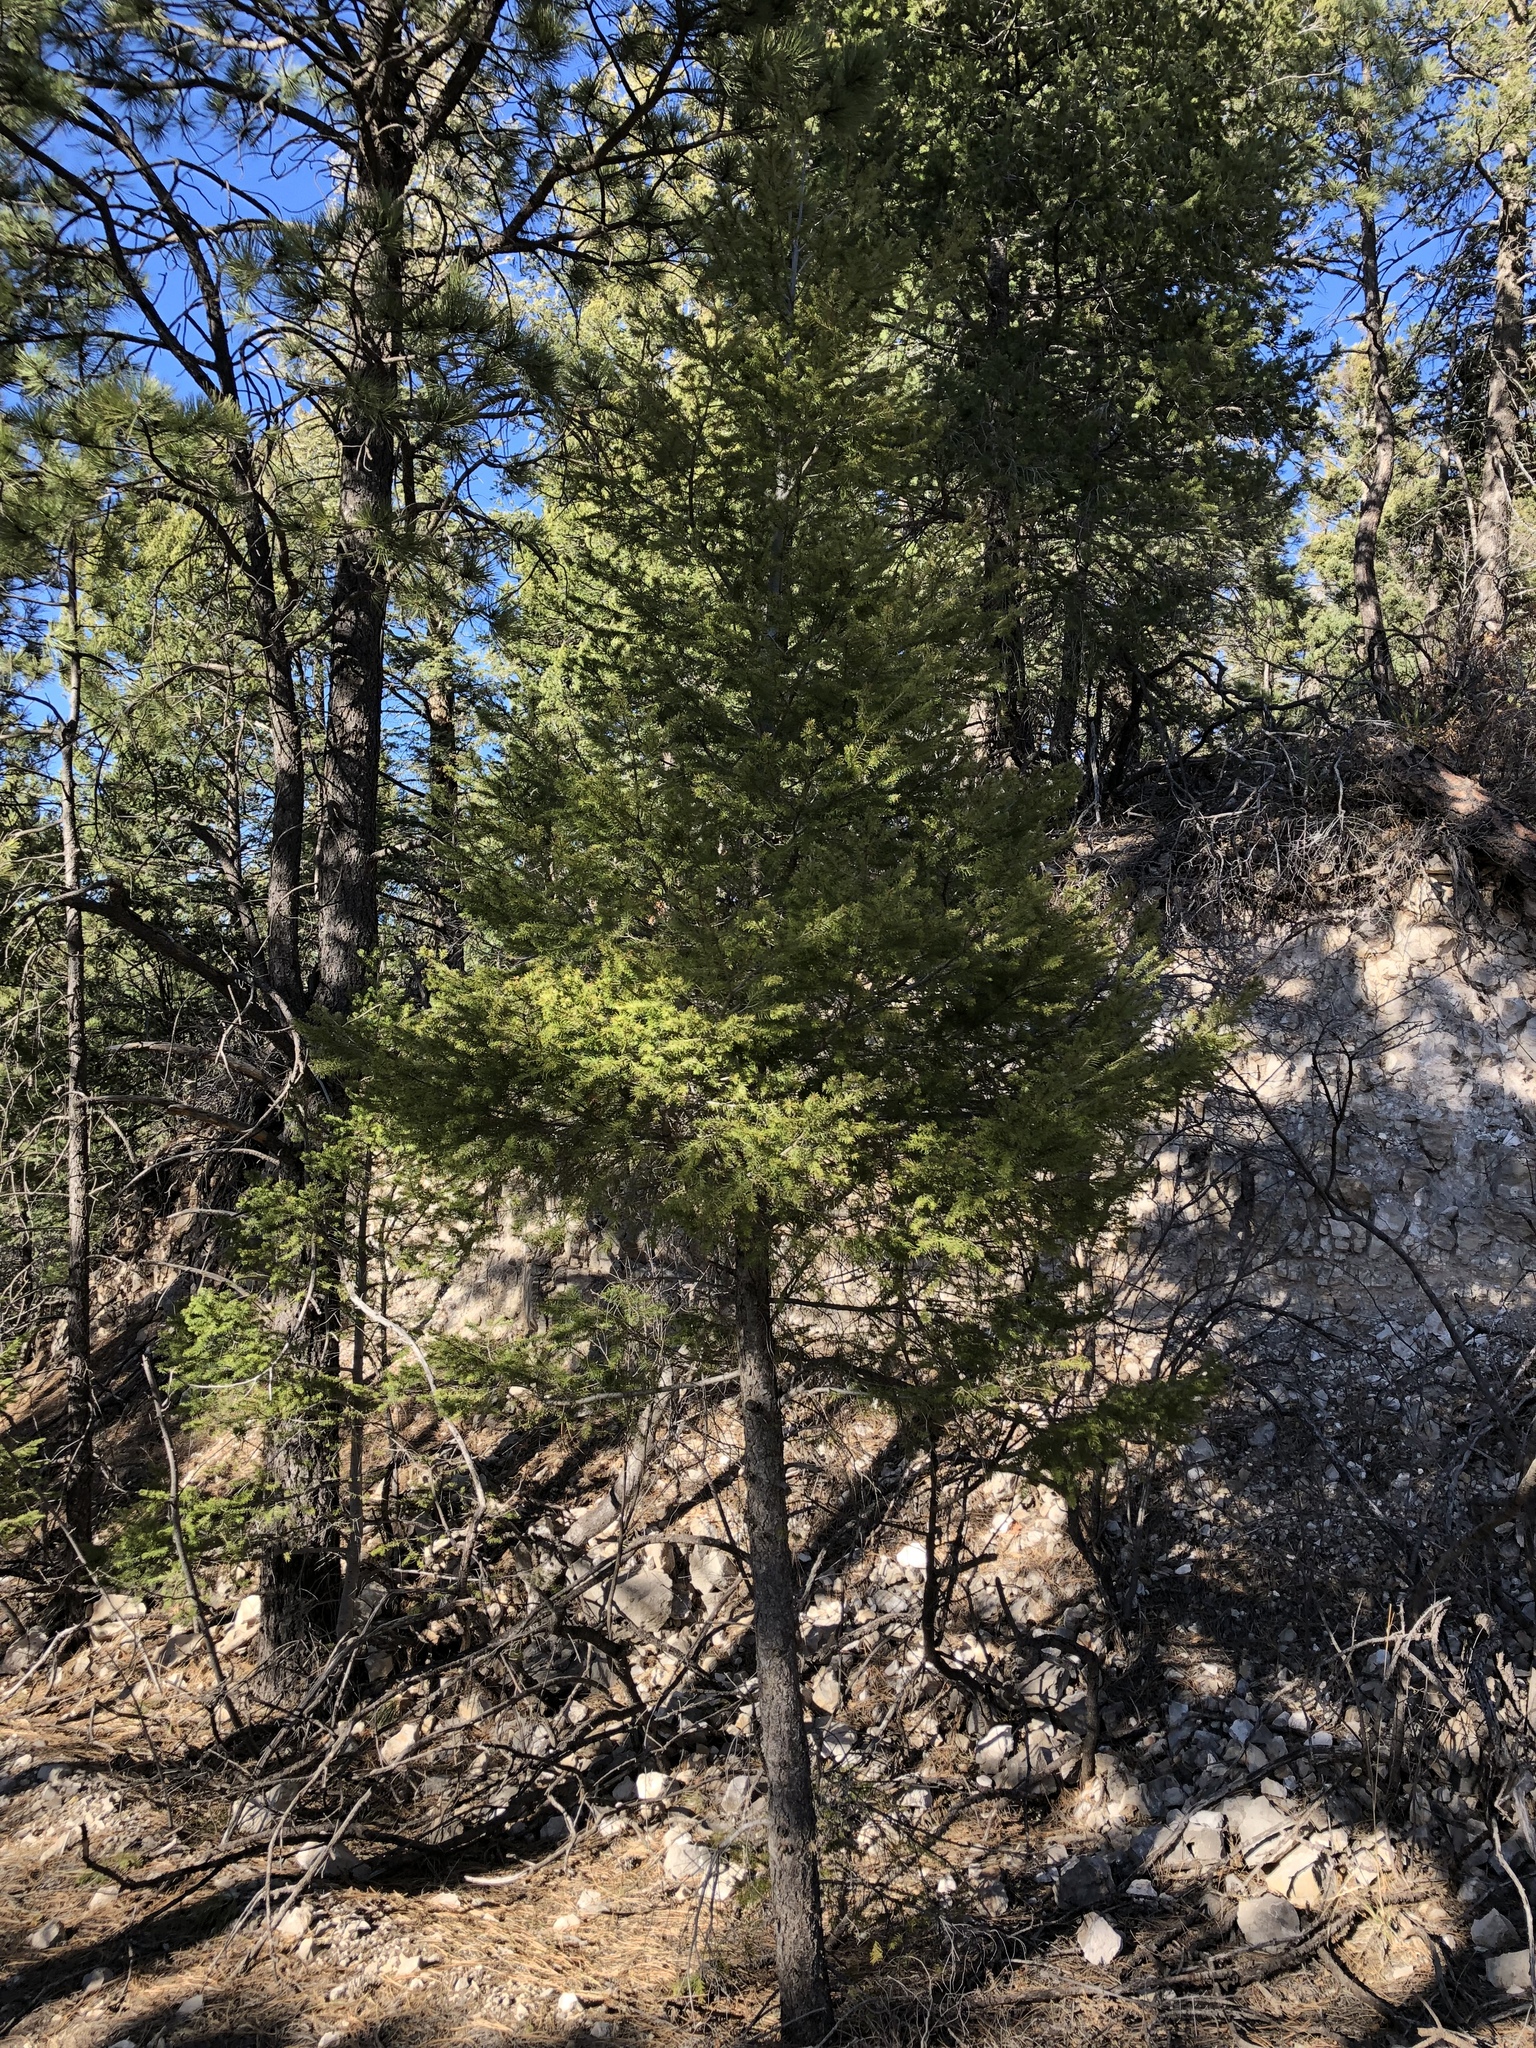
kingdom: Plantae
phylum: Tracheophyta
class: Pinopsida
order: Pinales
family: Pinaceae
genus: Pseudotsuga
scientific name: Pseudotsuga menziesii
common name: Douglas fir
